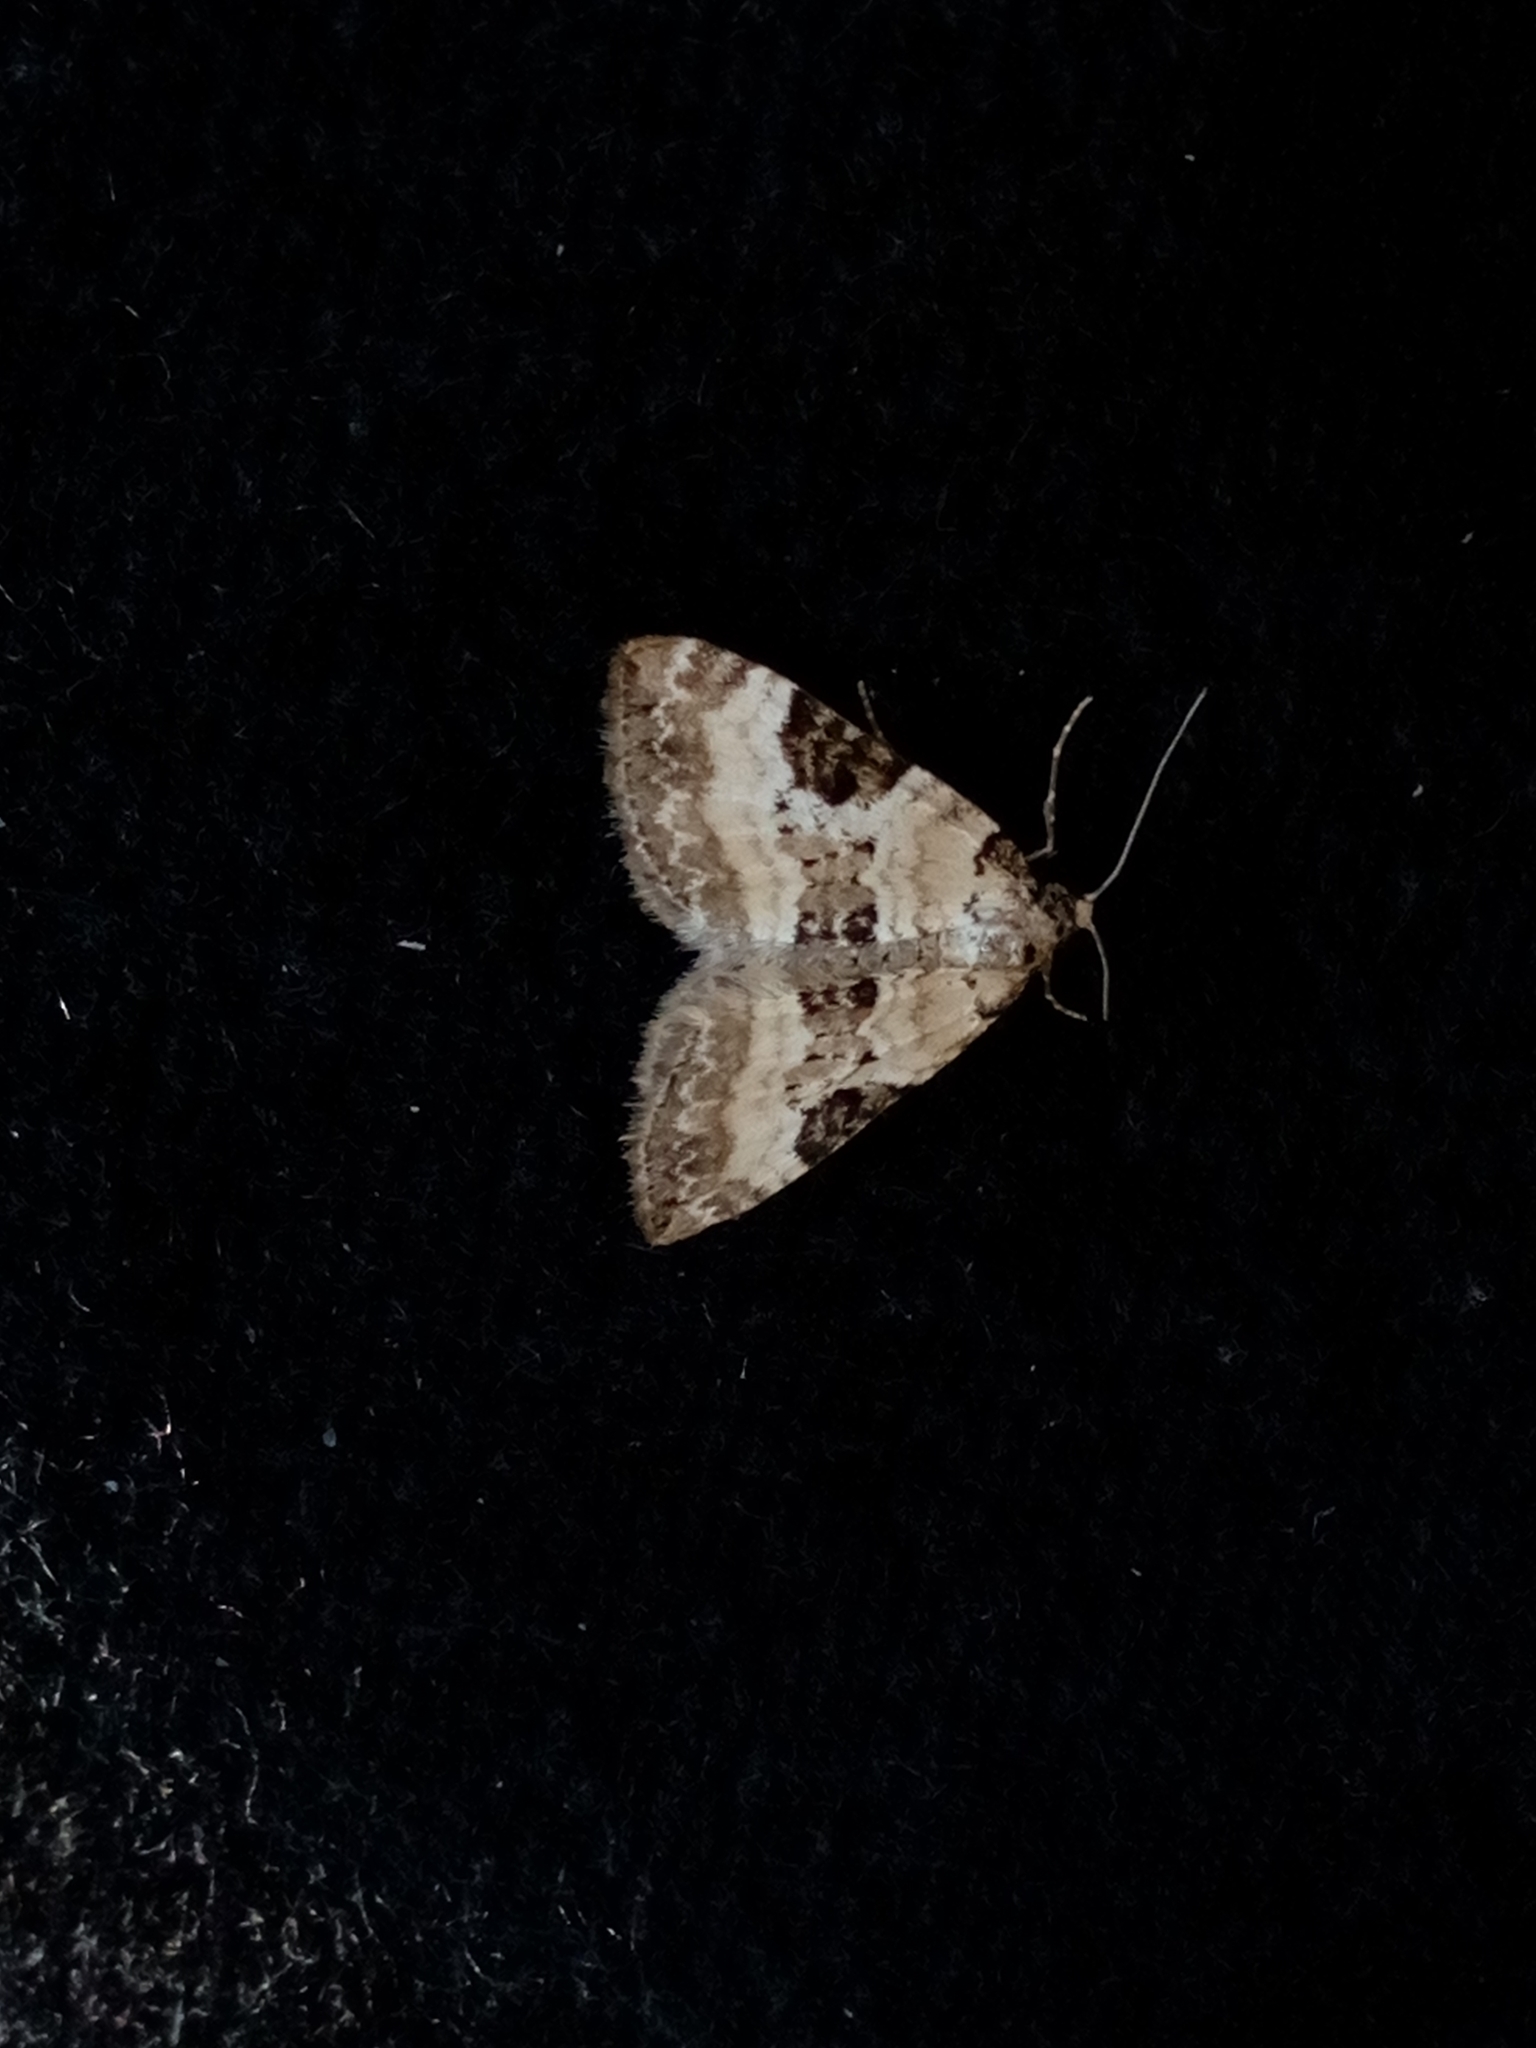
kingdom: Animalia
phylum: Arthropoda
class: Insecta
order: Lepidoptera
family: Geometridae
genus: Perizoma
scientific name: Perizoma blandiata
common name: Pretty pinion
